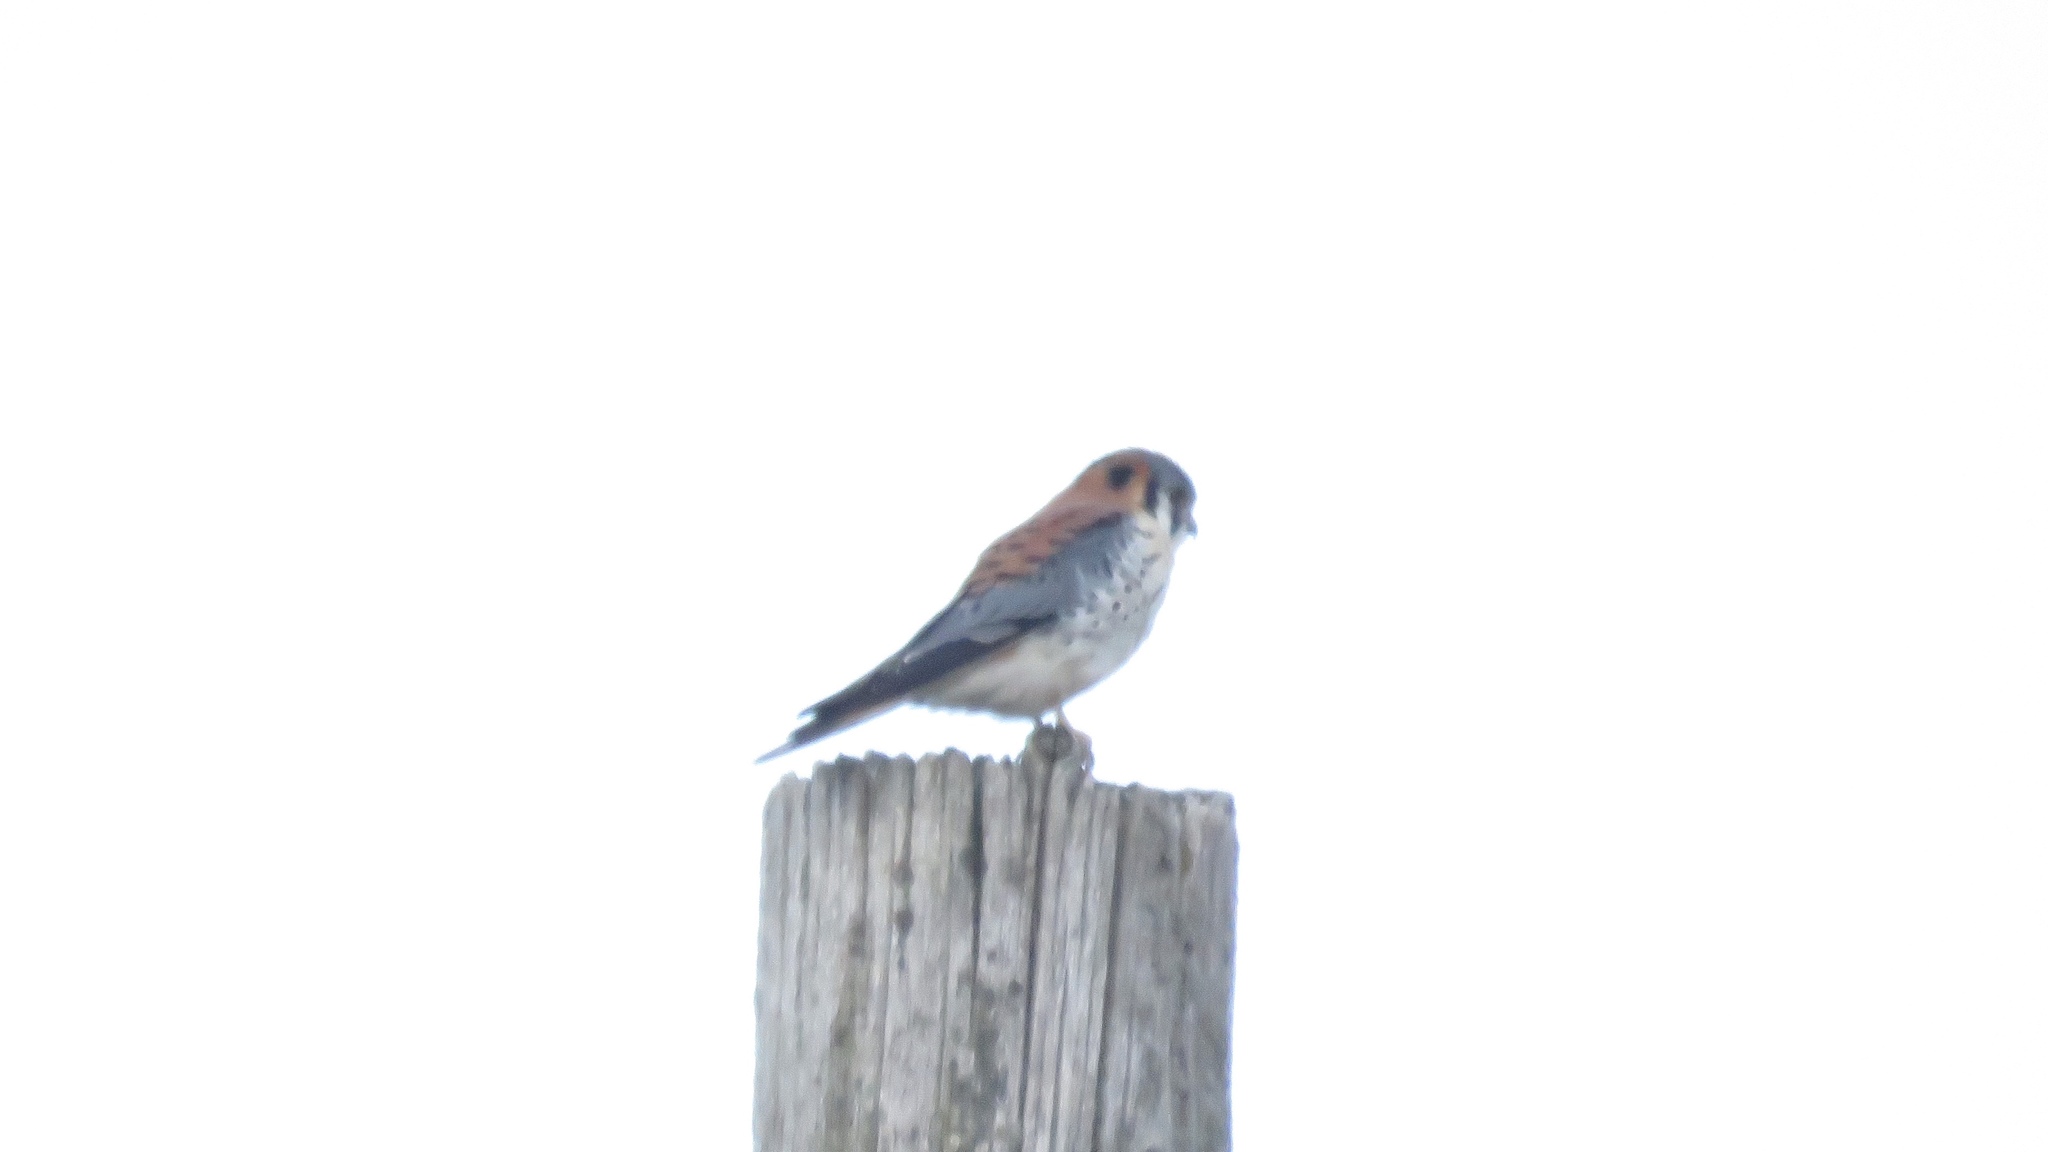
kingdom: Animalia
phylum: Chordata
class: Aves
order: Falconiformes
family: Falconidae
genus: Falco
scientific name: Falco sparverius
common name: American kestrel
